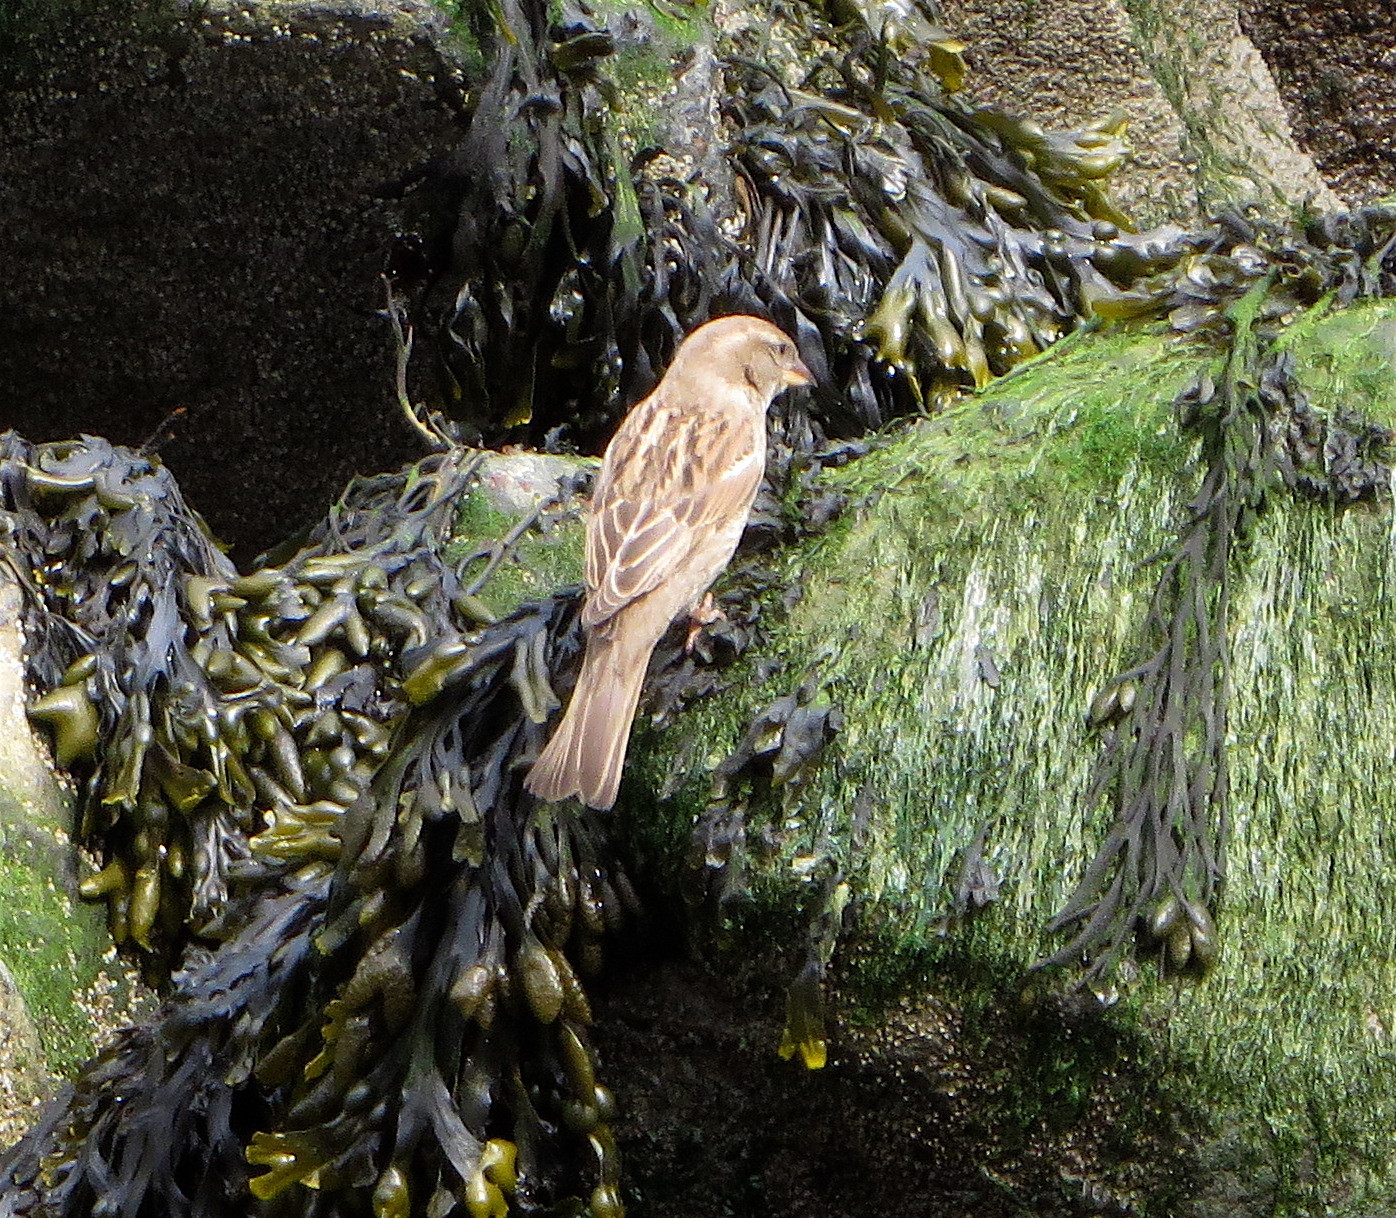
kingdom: Animalia
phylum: Chordata
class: Aves
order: Passeriformes
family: Passeridae
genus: Passer
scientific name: Passer domesticus
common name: House sparrow
